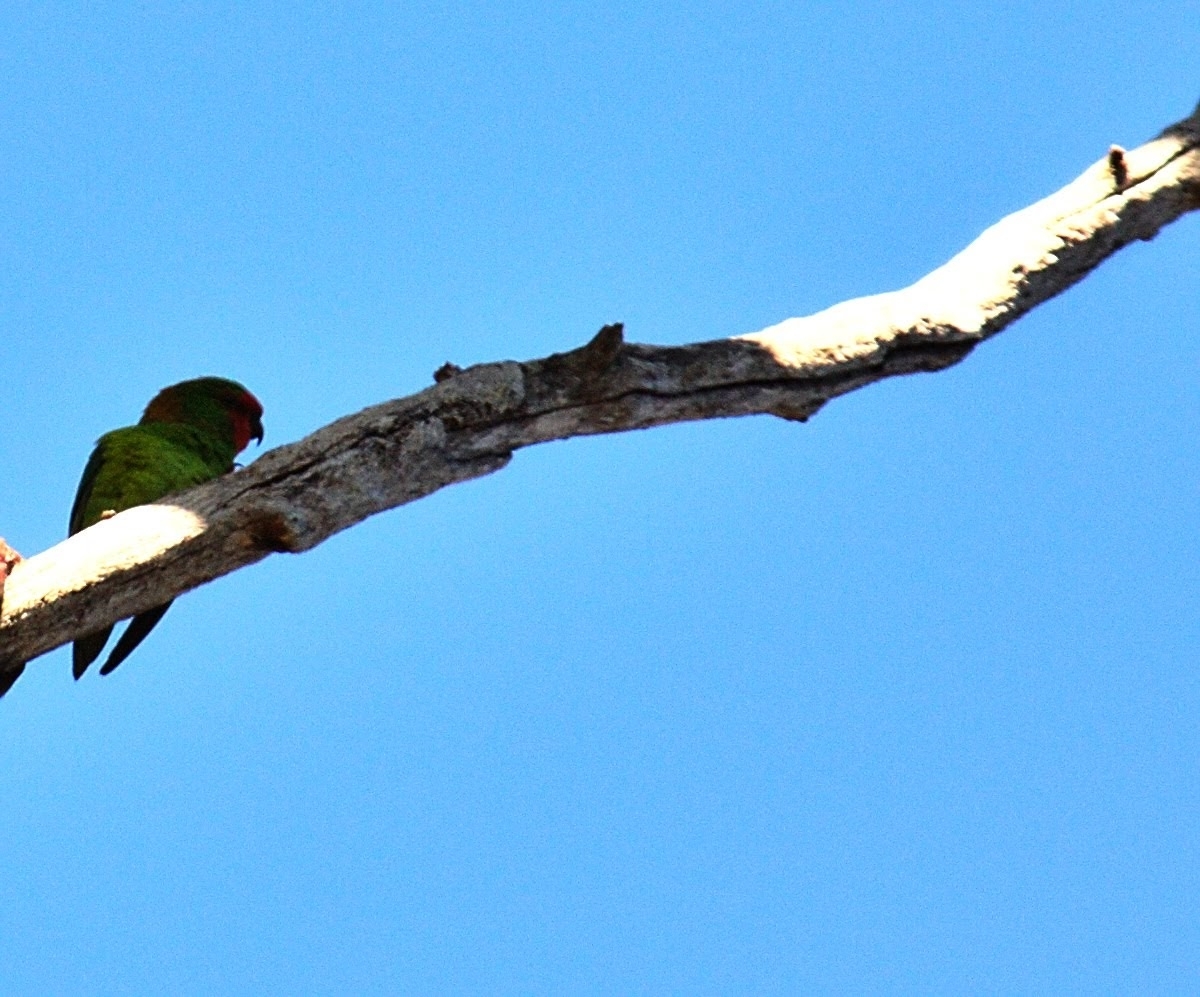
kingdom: Animalia
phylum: Chordata
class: Aves
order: Psittaciformes
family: Psittaculidae
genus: Parvipsitta
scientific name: Parvipsitta pusilla
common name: Little lorikeet
